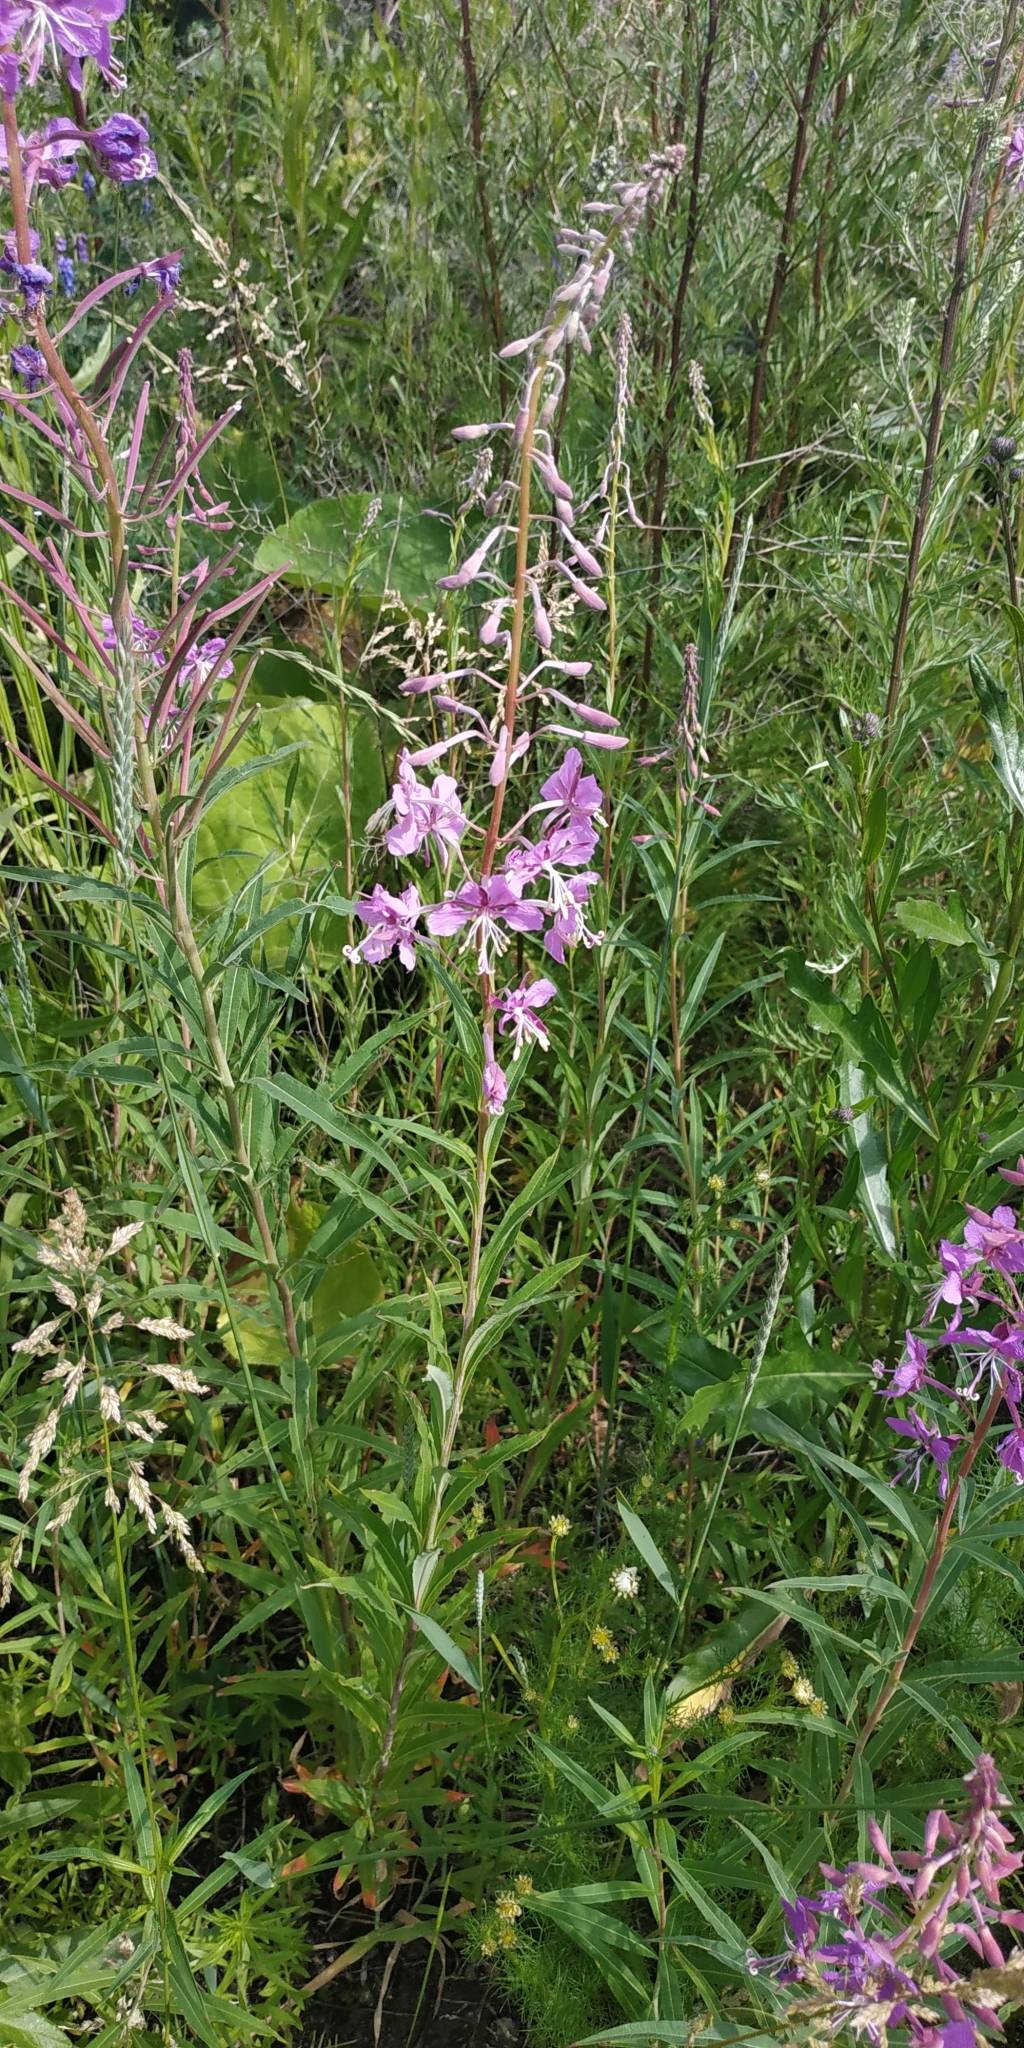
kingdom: Plantae
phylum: Tracheophyta
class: Magnoliopsida
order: Myrtales
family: Onagraceae
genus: Chamaenerion
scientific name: Chamaenerion angustifolium
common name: Fireweed
